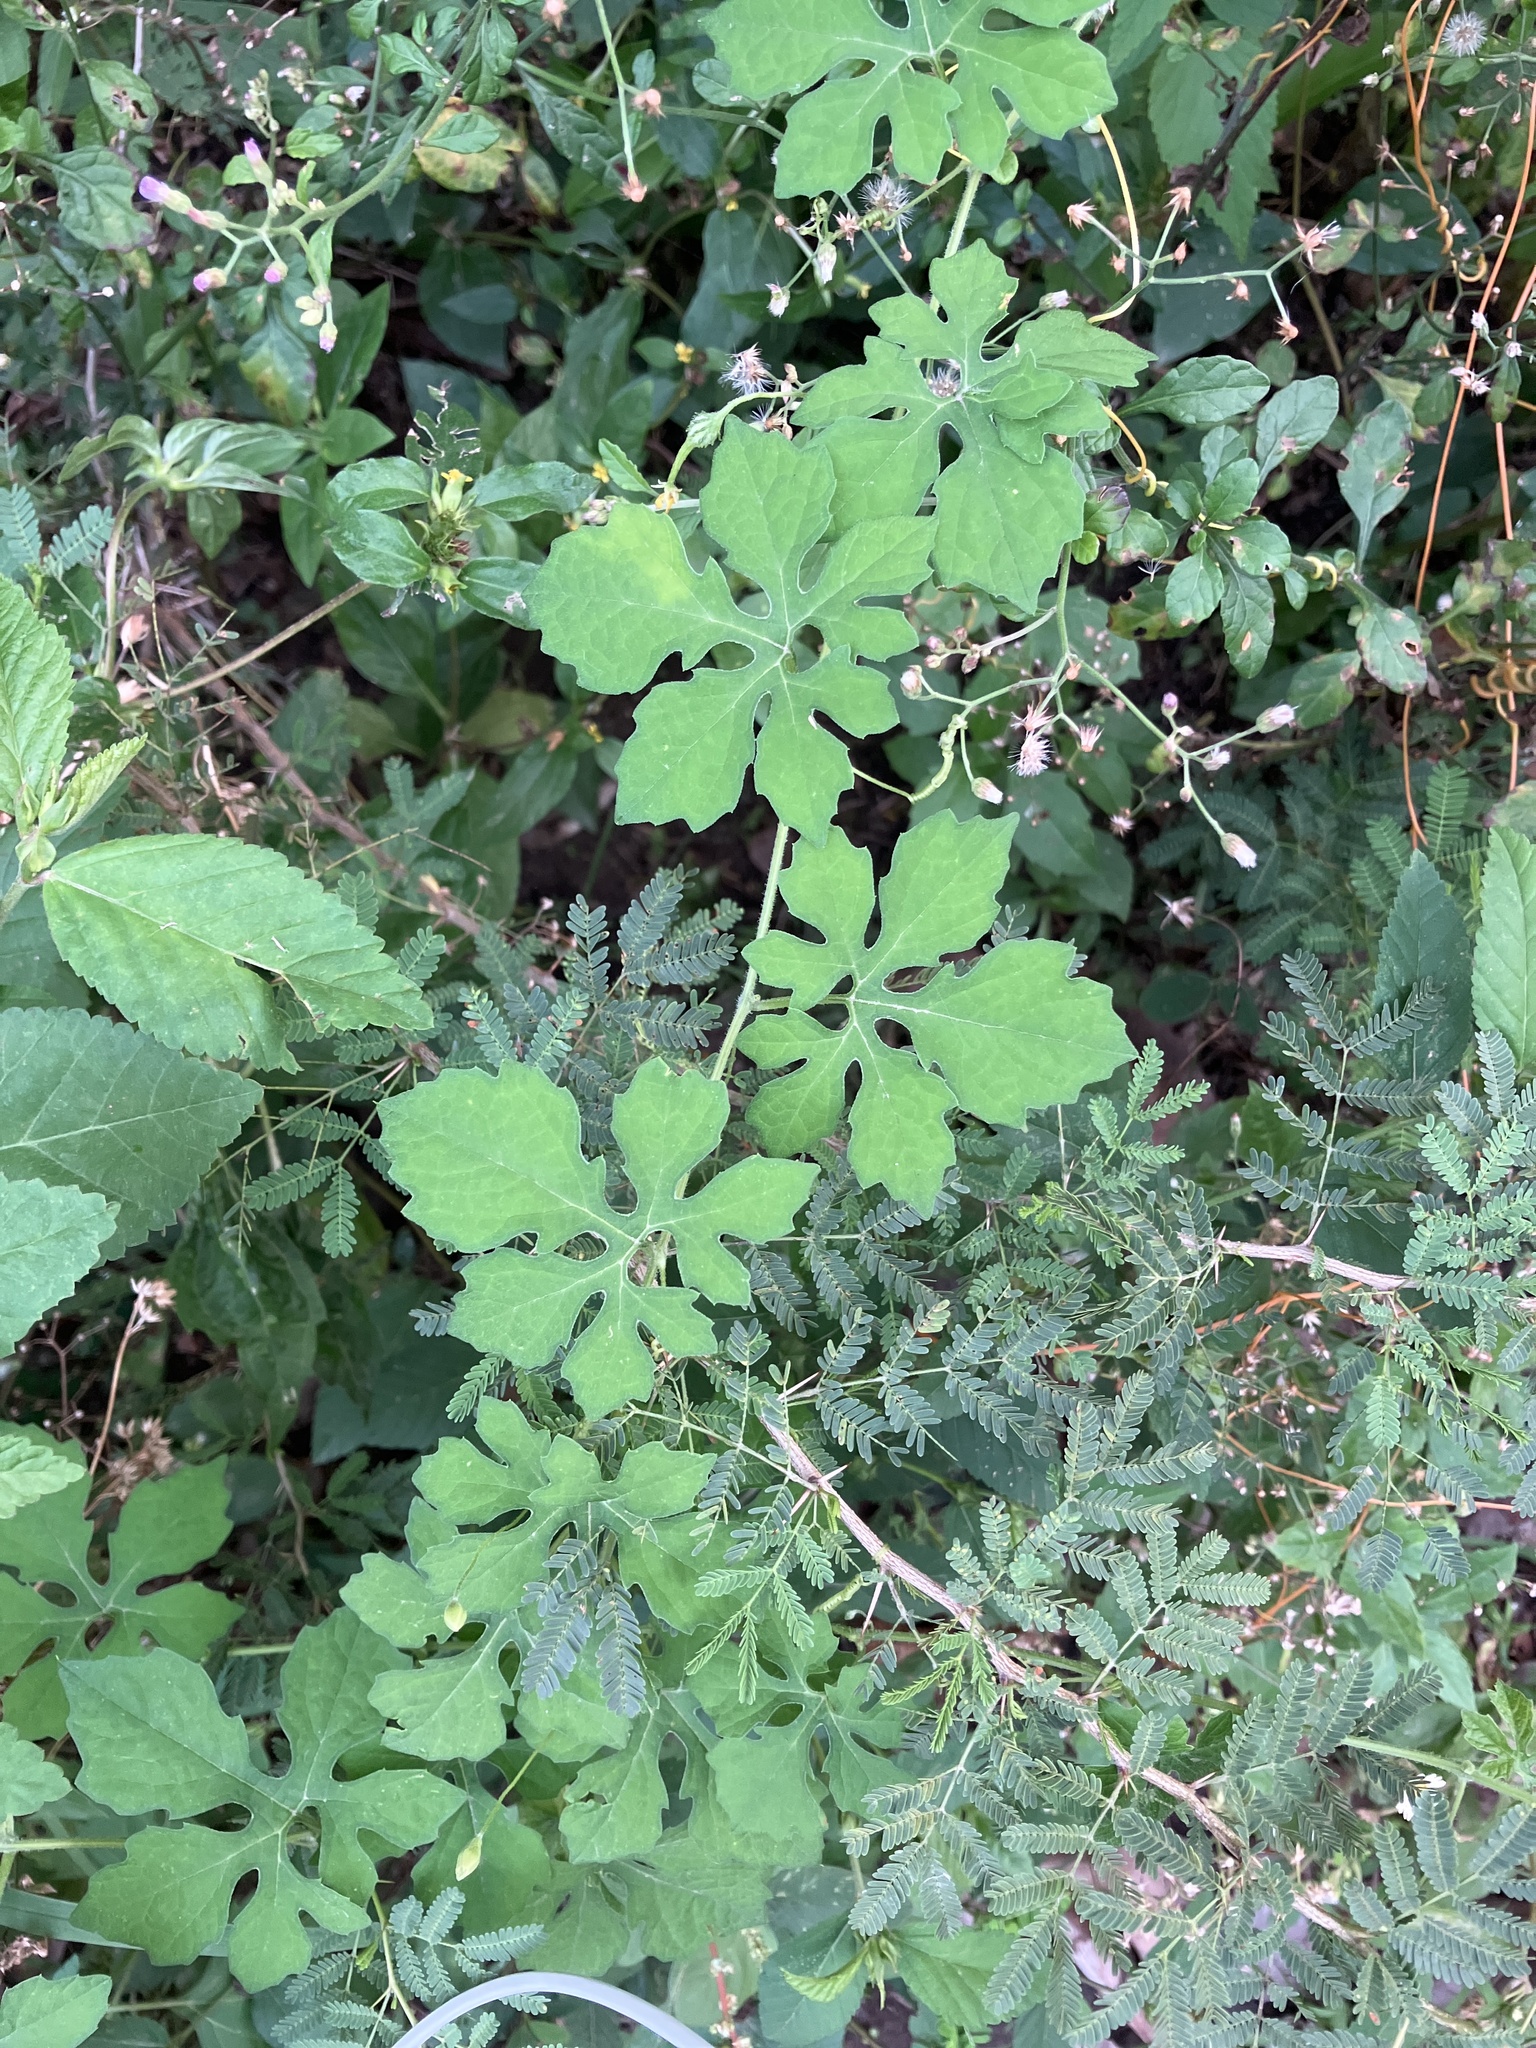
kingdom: Plantae
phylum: Tracheophyta
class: Magnoliopsida
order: Cucurbitales
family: Cucurbitaceae
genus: Momordica
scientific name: Momordica charantia
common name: Balsampear
